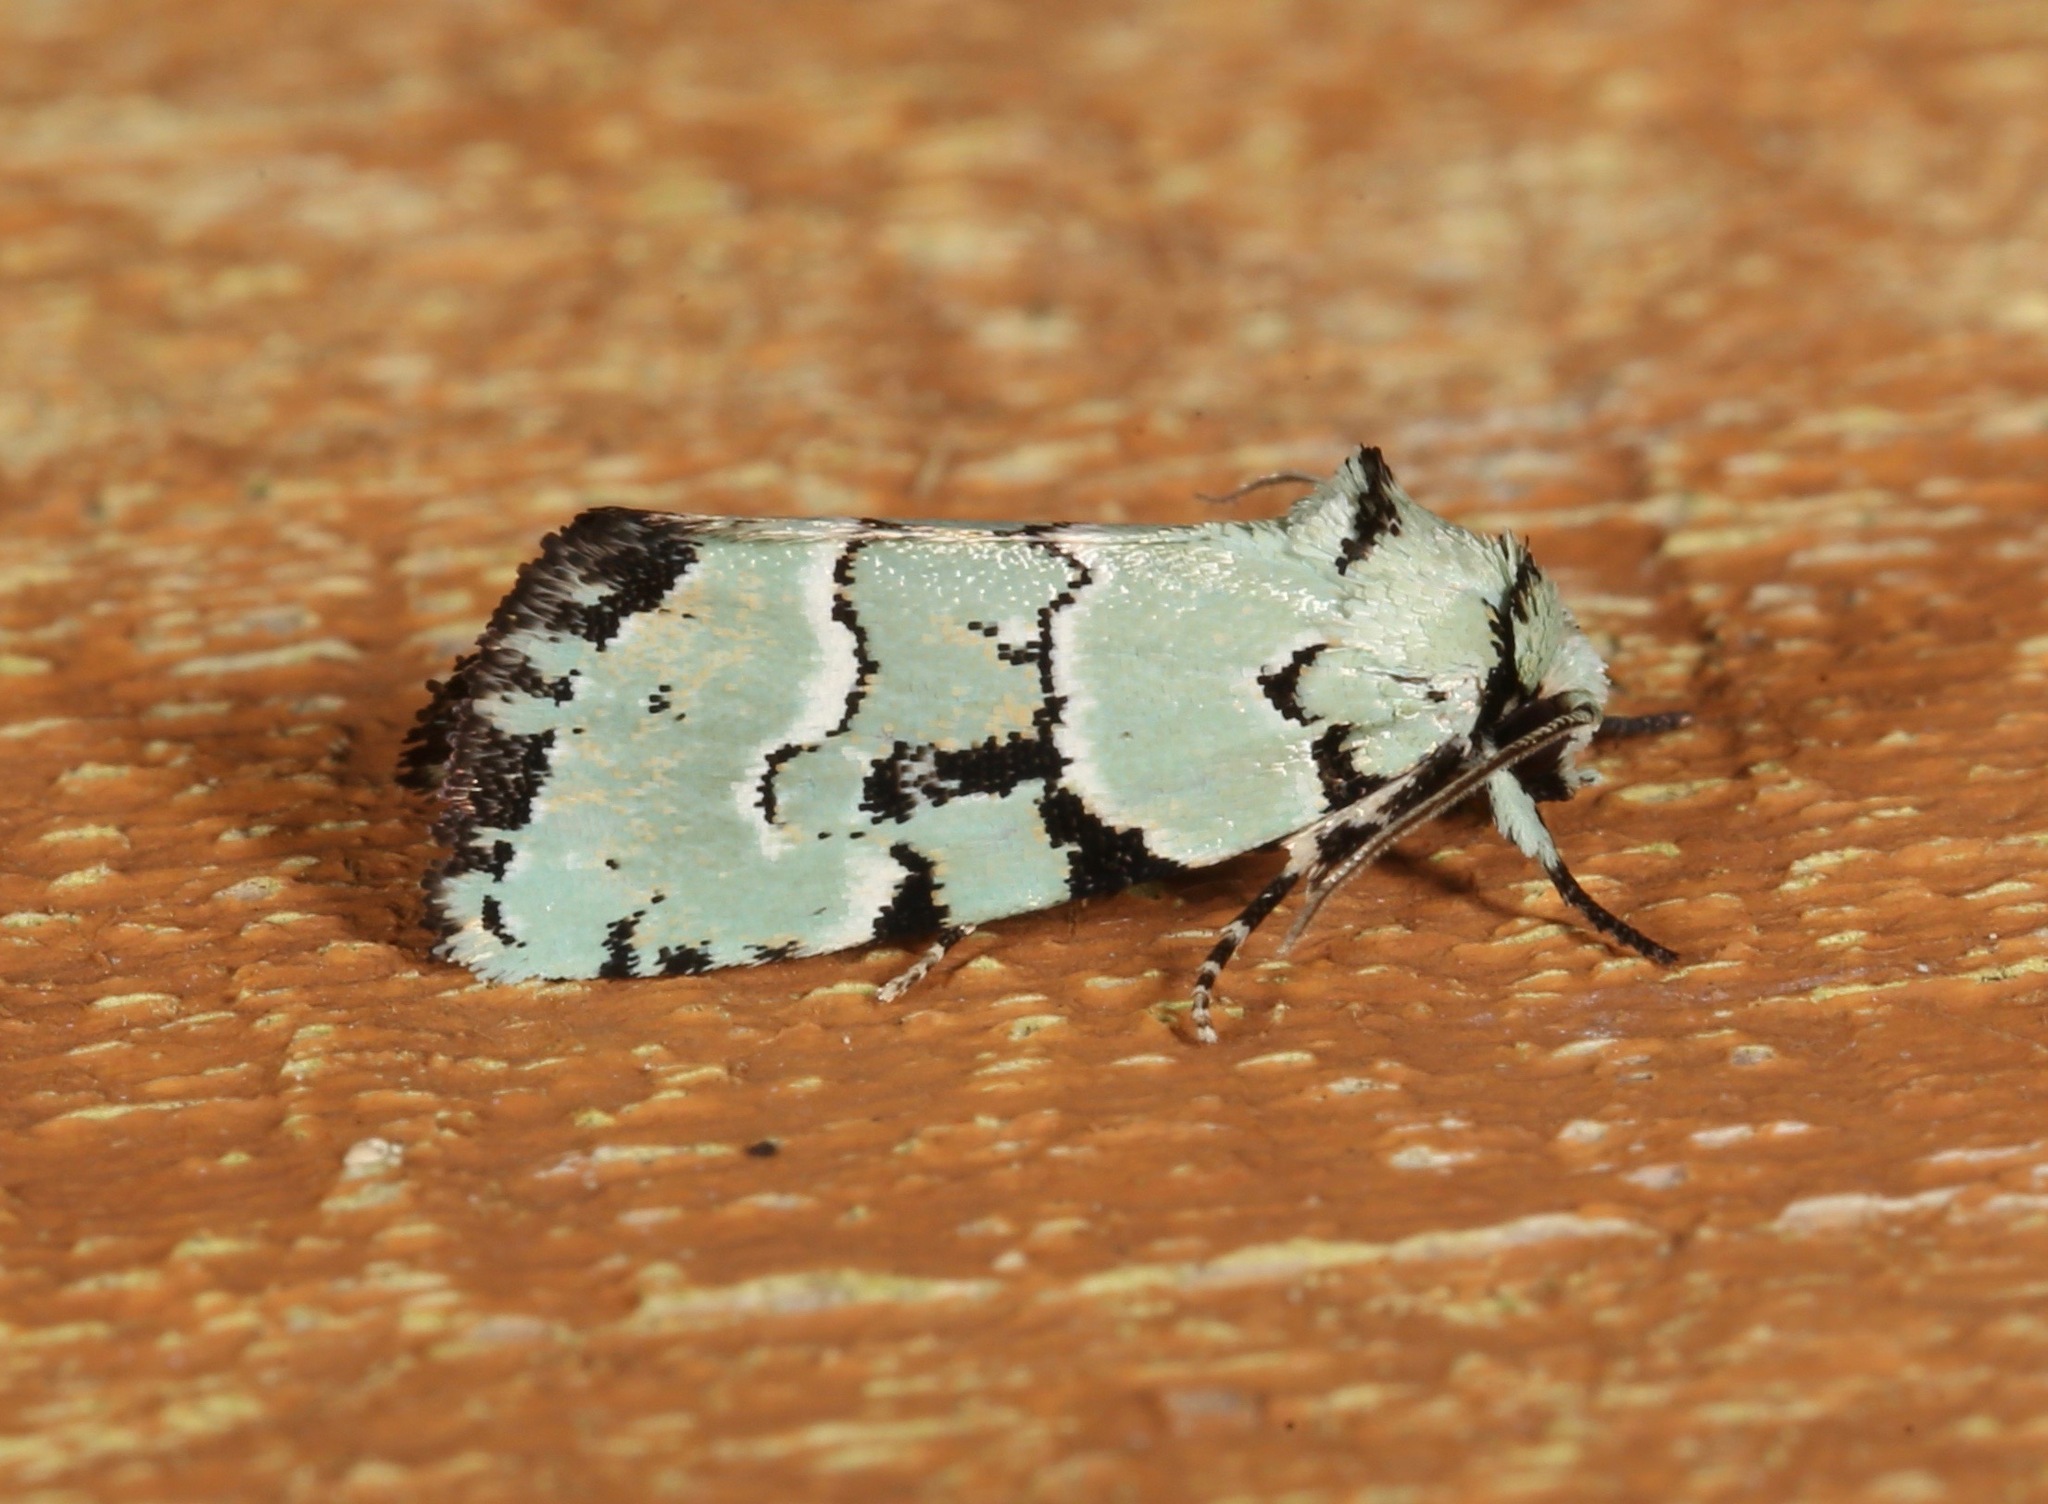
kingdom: Animalia
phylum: Arthropoda
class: Insecta
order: Lepidoptera
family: Noctuidae
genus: Elaphria
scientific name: Elaphria cyanympha
